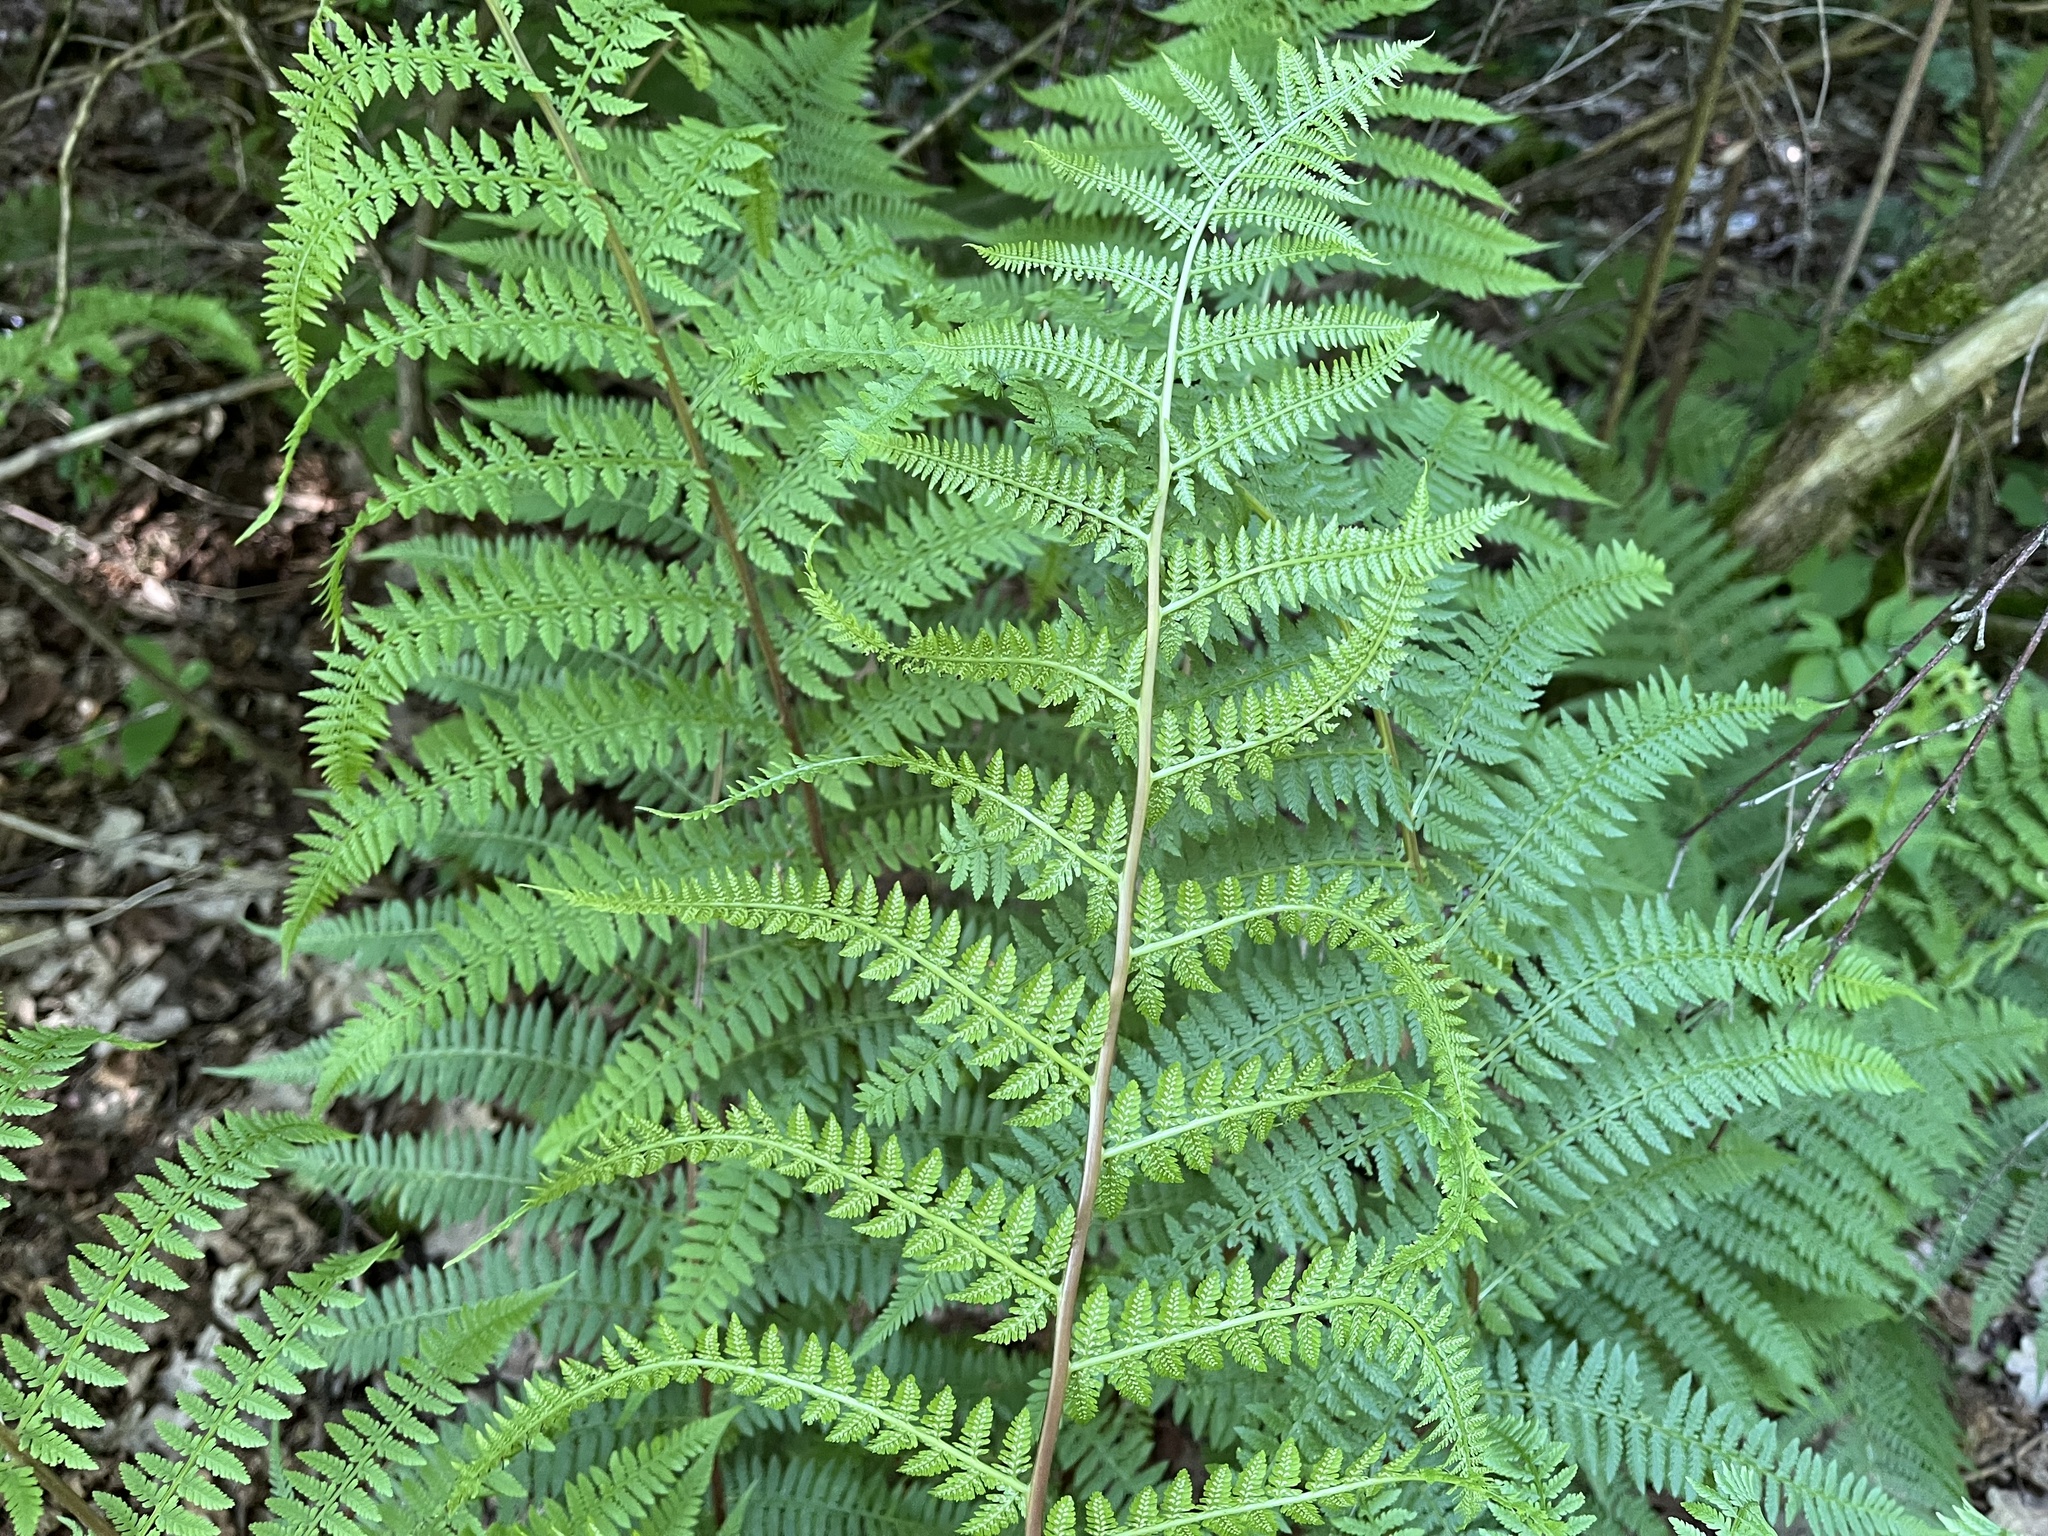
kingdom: Plantae
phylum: Tracheophyta
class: Polypodiopsida
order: Polypodiales
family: Athyriaceae
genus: Athyrium
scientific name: Athyrium filix-femina
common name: Lady fern
